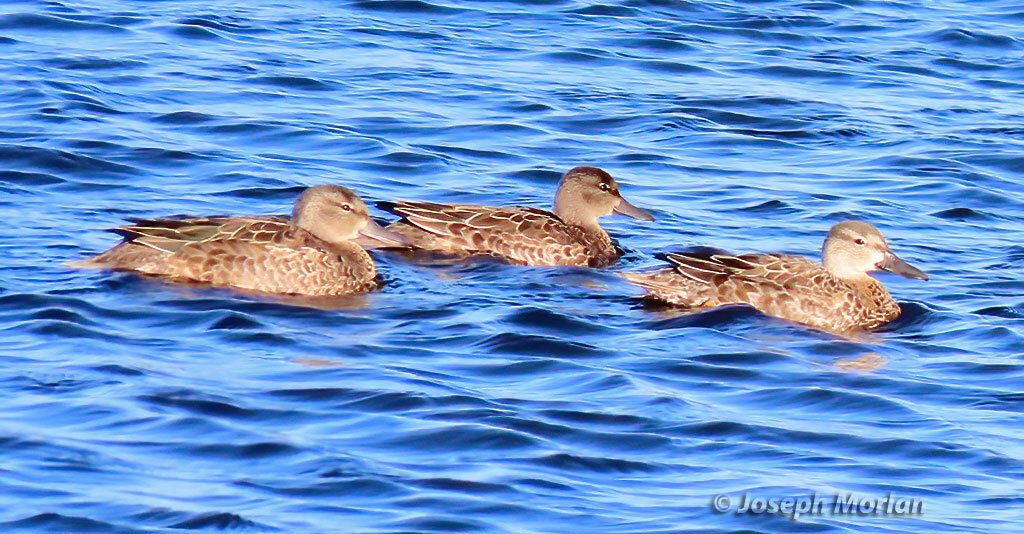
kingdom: Animalia
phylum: Chordata
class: Aves
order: Anseriformes
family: Anatidae
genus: Spatula
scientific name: Spatula discors
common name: Blue-winged teal
